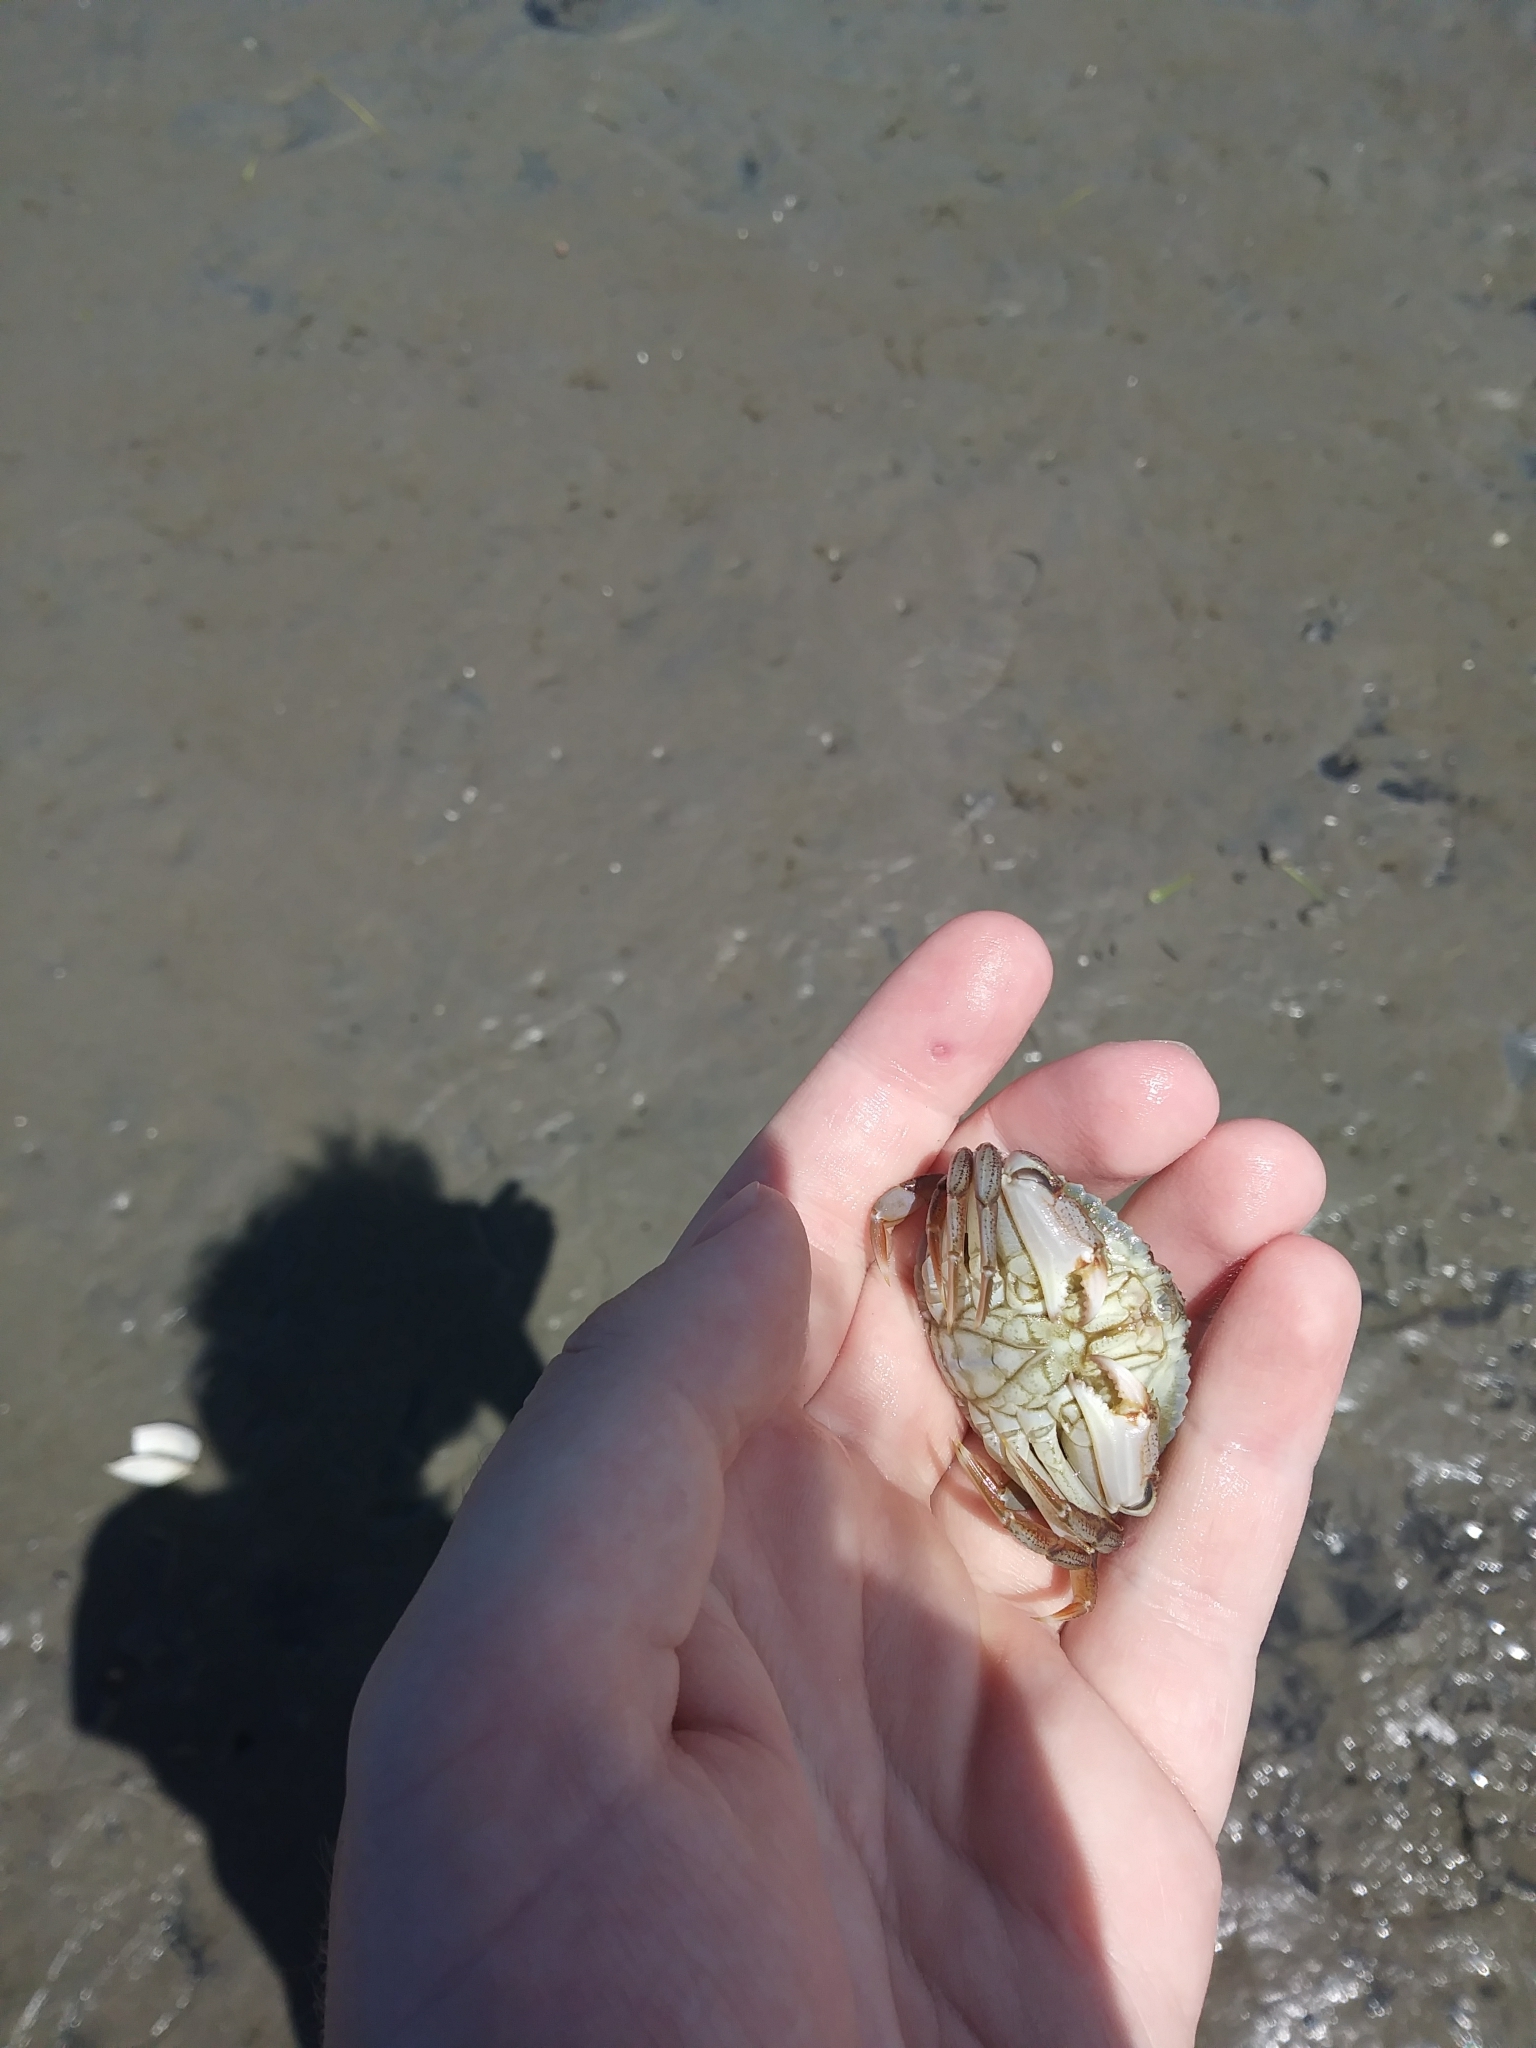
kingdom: Animalia
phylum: Arthropoda
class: Malacostraca
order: Decapoda
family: Cancridae
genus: Cancer
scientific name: Cancer irroratus
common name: Atlantic rock crab
